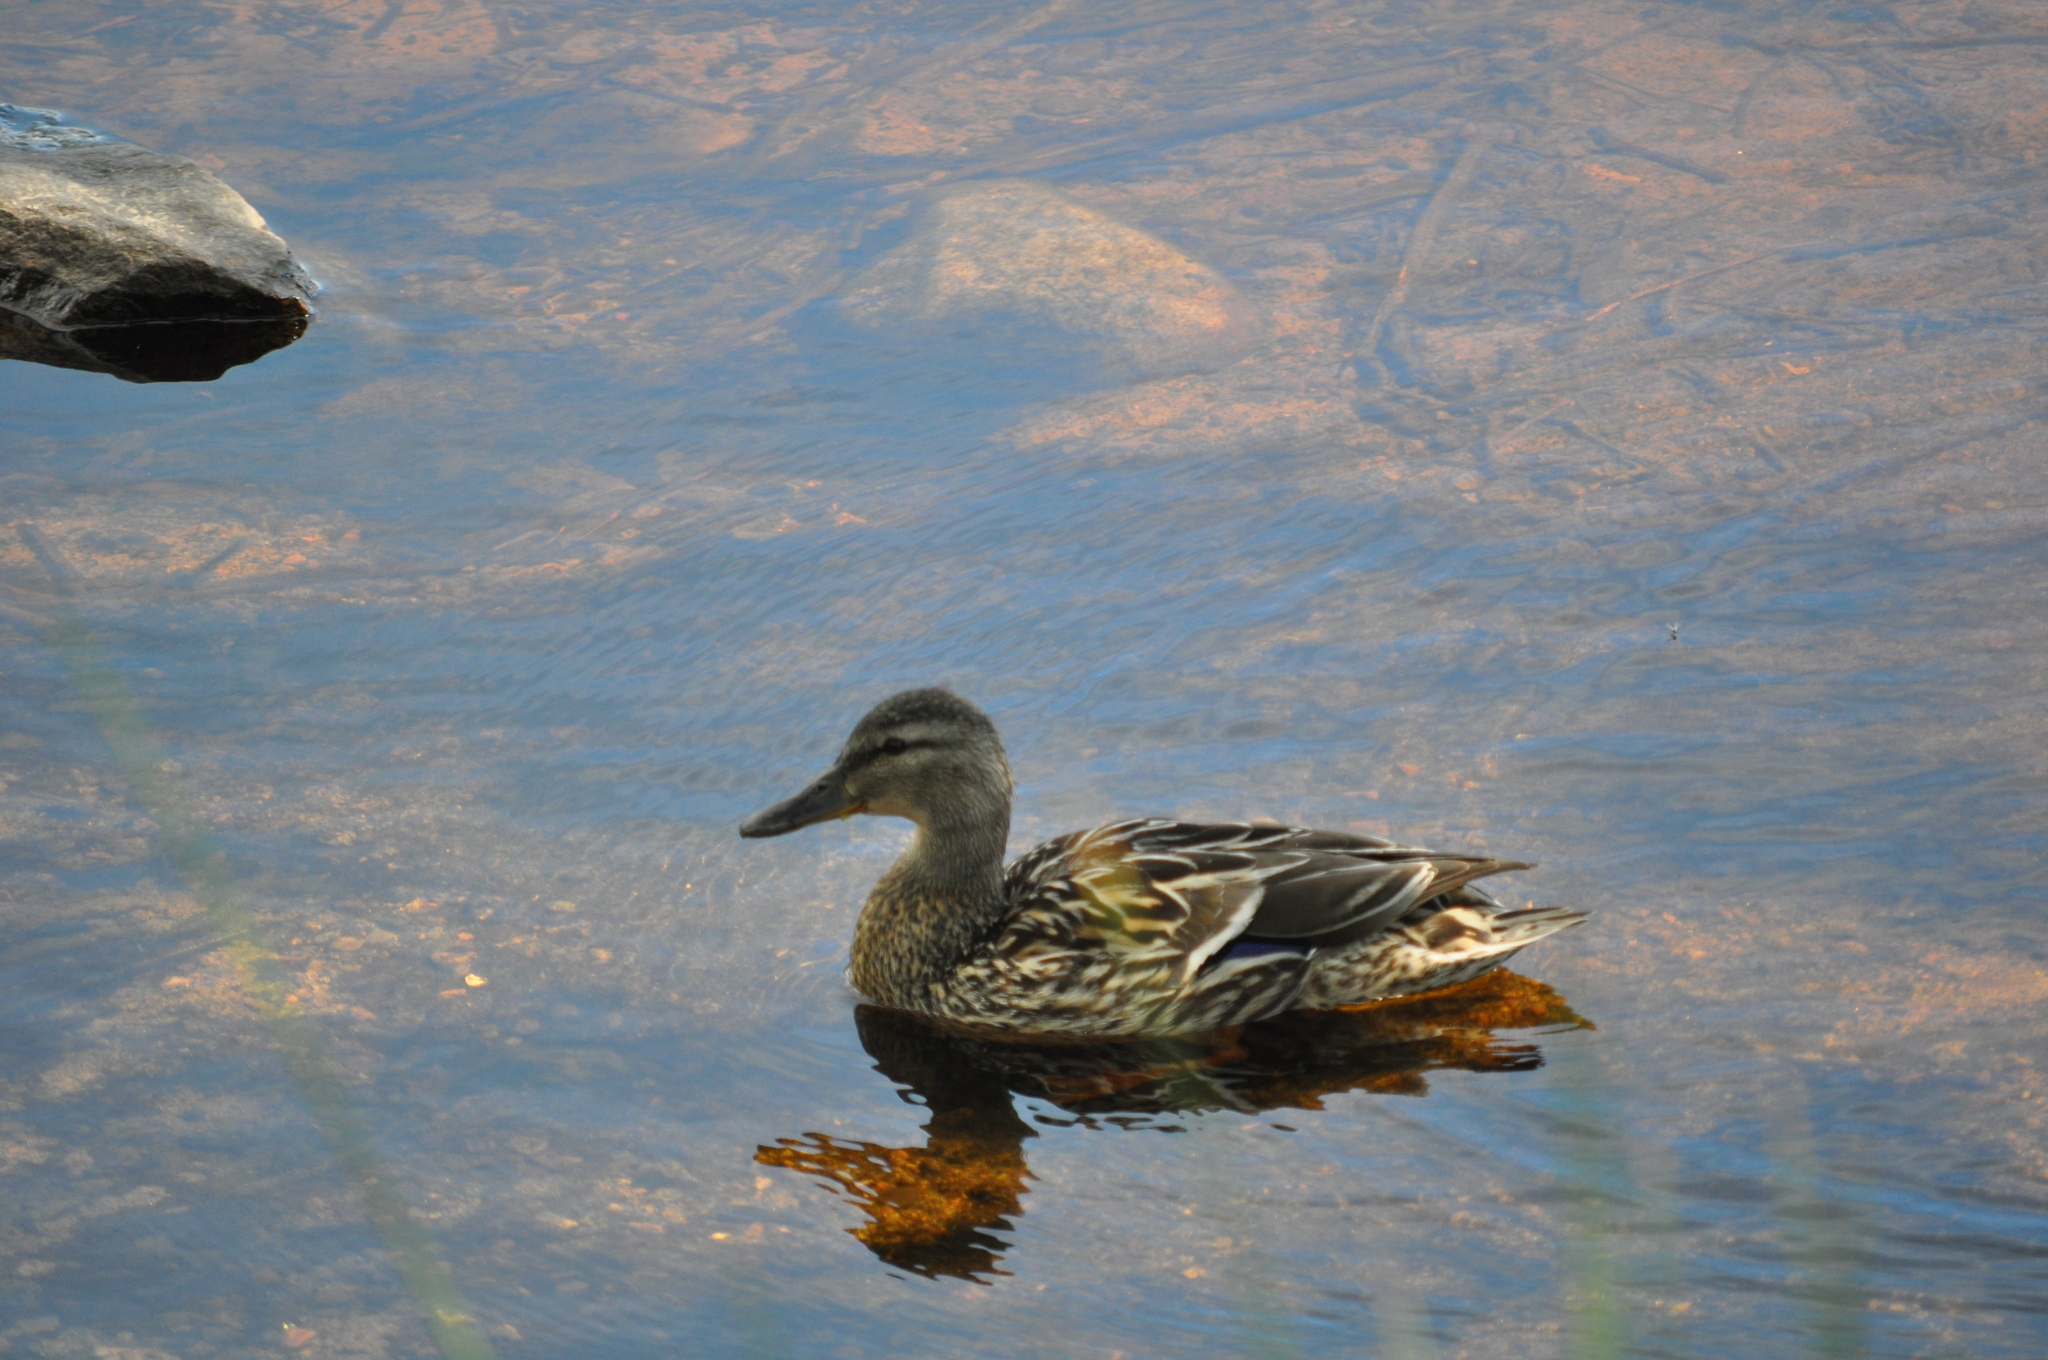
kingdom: Animalia
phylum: Chordata
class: Aves
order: Anseriformes
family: Anatidae
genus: Anas
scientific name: Anas platyrhynchos
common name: Mallard
